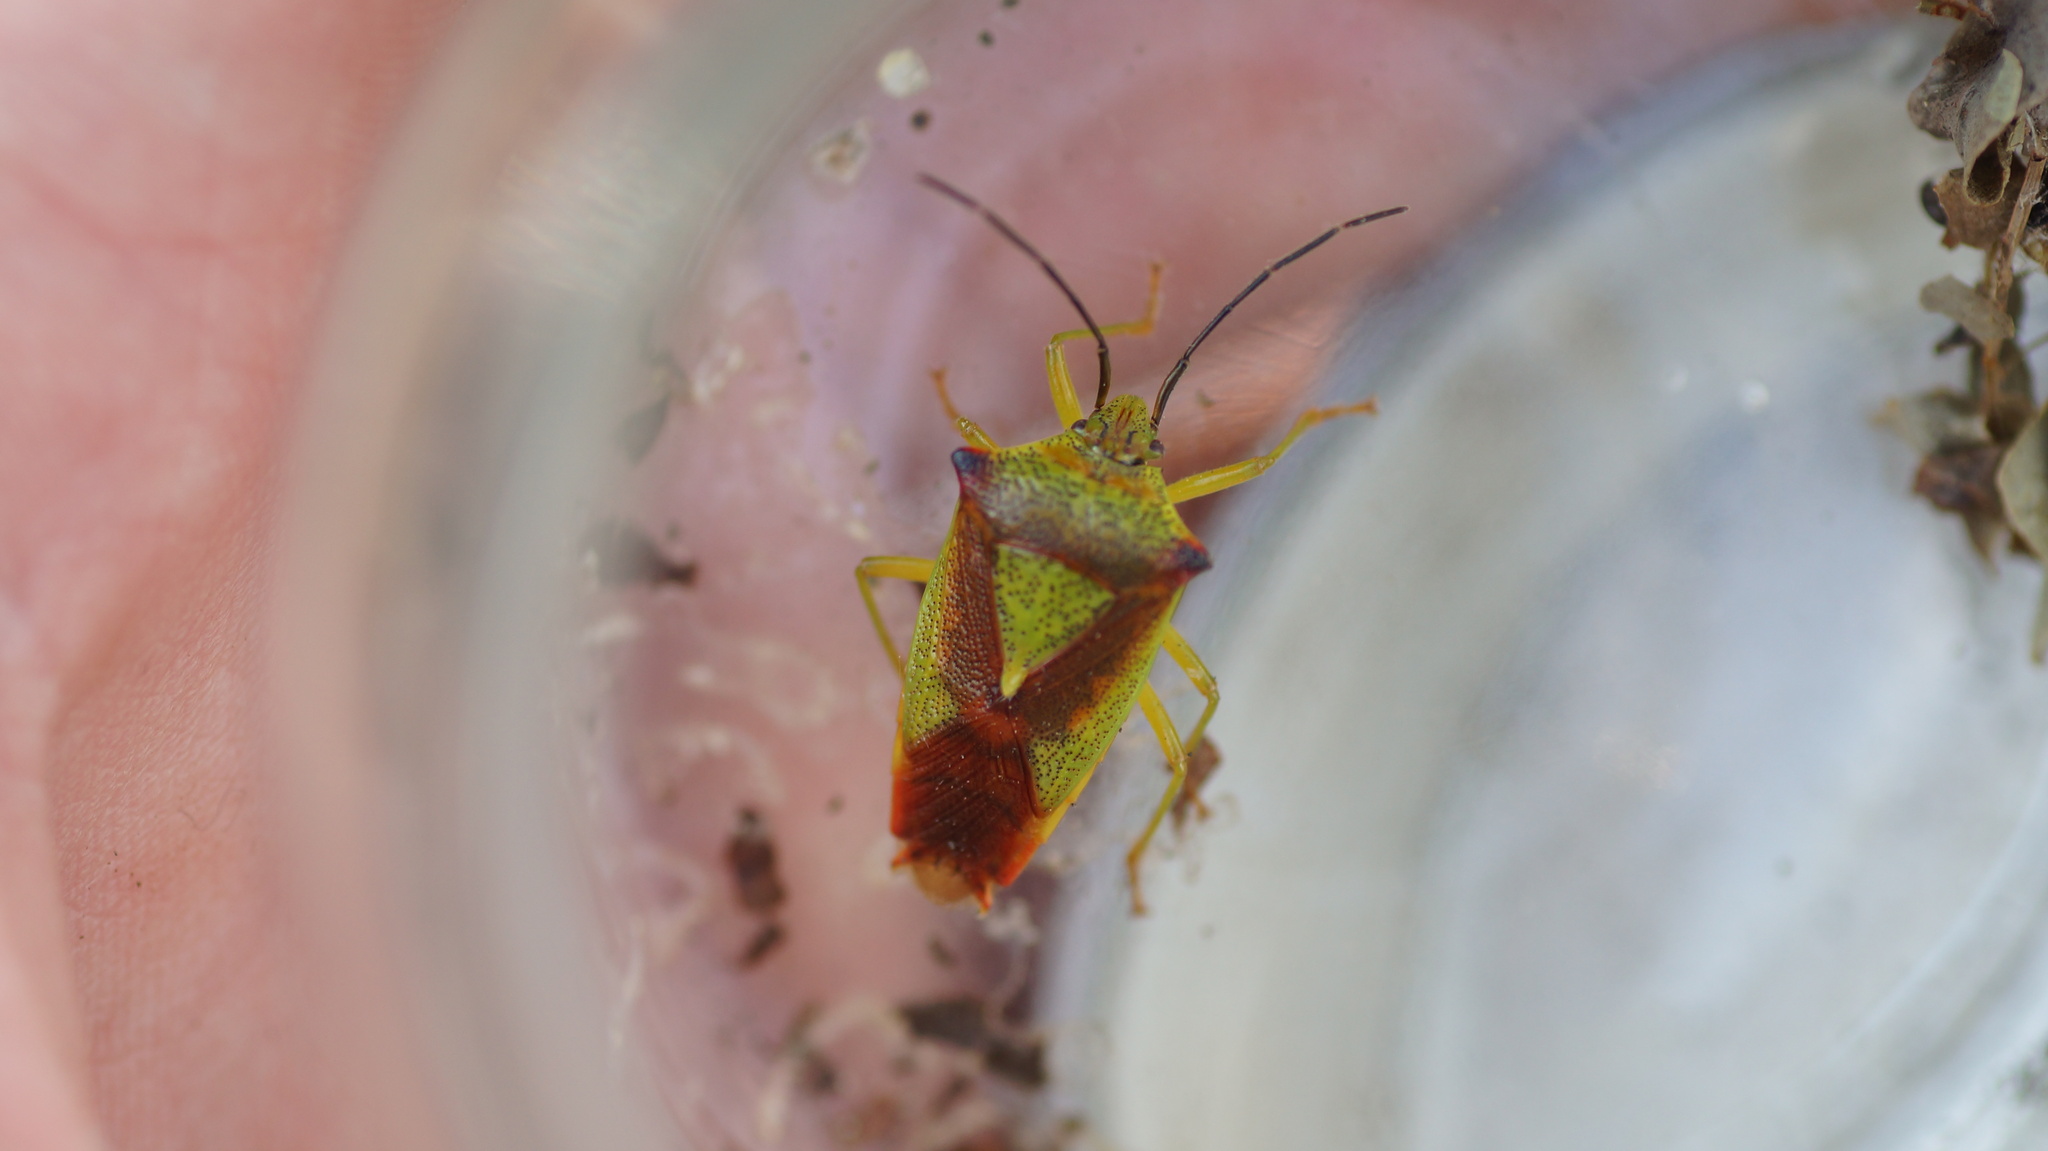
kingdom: Animalia
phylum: Arthropoda
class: Insecta
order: Hemiptera
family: Acanthosomatidae
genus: Acanthosoma
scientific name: Acanthosoma haemorrhoidale
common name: Hawthorn shieldbug
